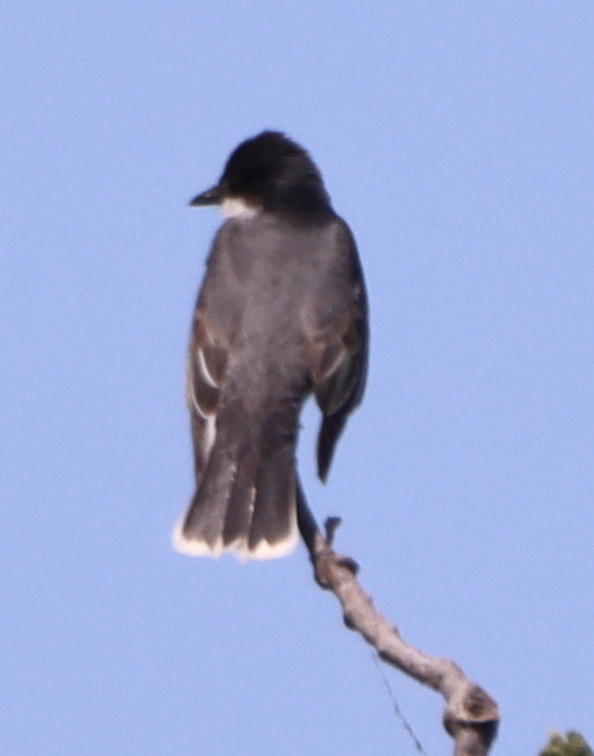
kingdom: Animalia
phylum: Chordata
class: Aves
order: Passeriformes
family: Tyrannidae
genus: Tyrannus
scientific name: Tyrannus tyrannus
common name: Eastern kingbird
